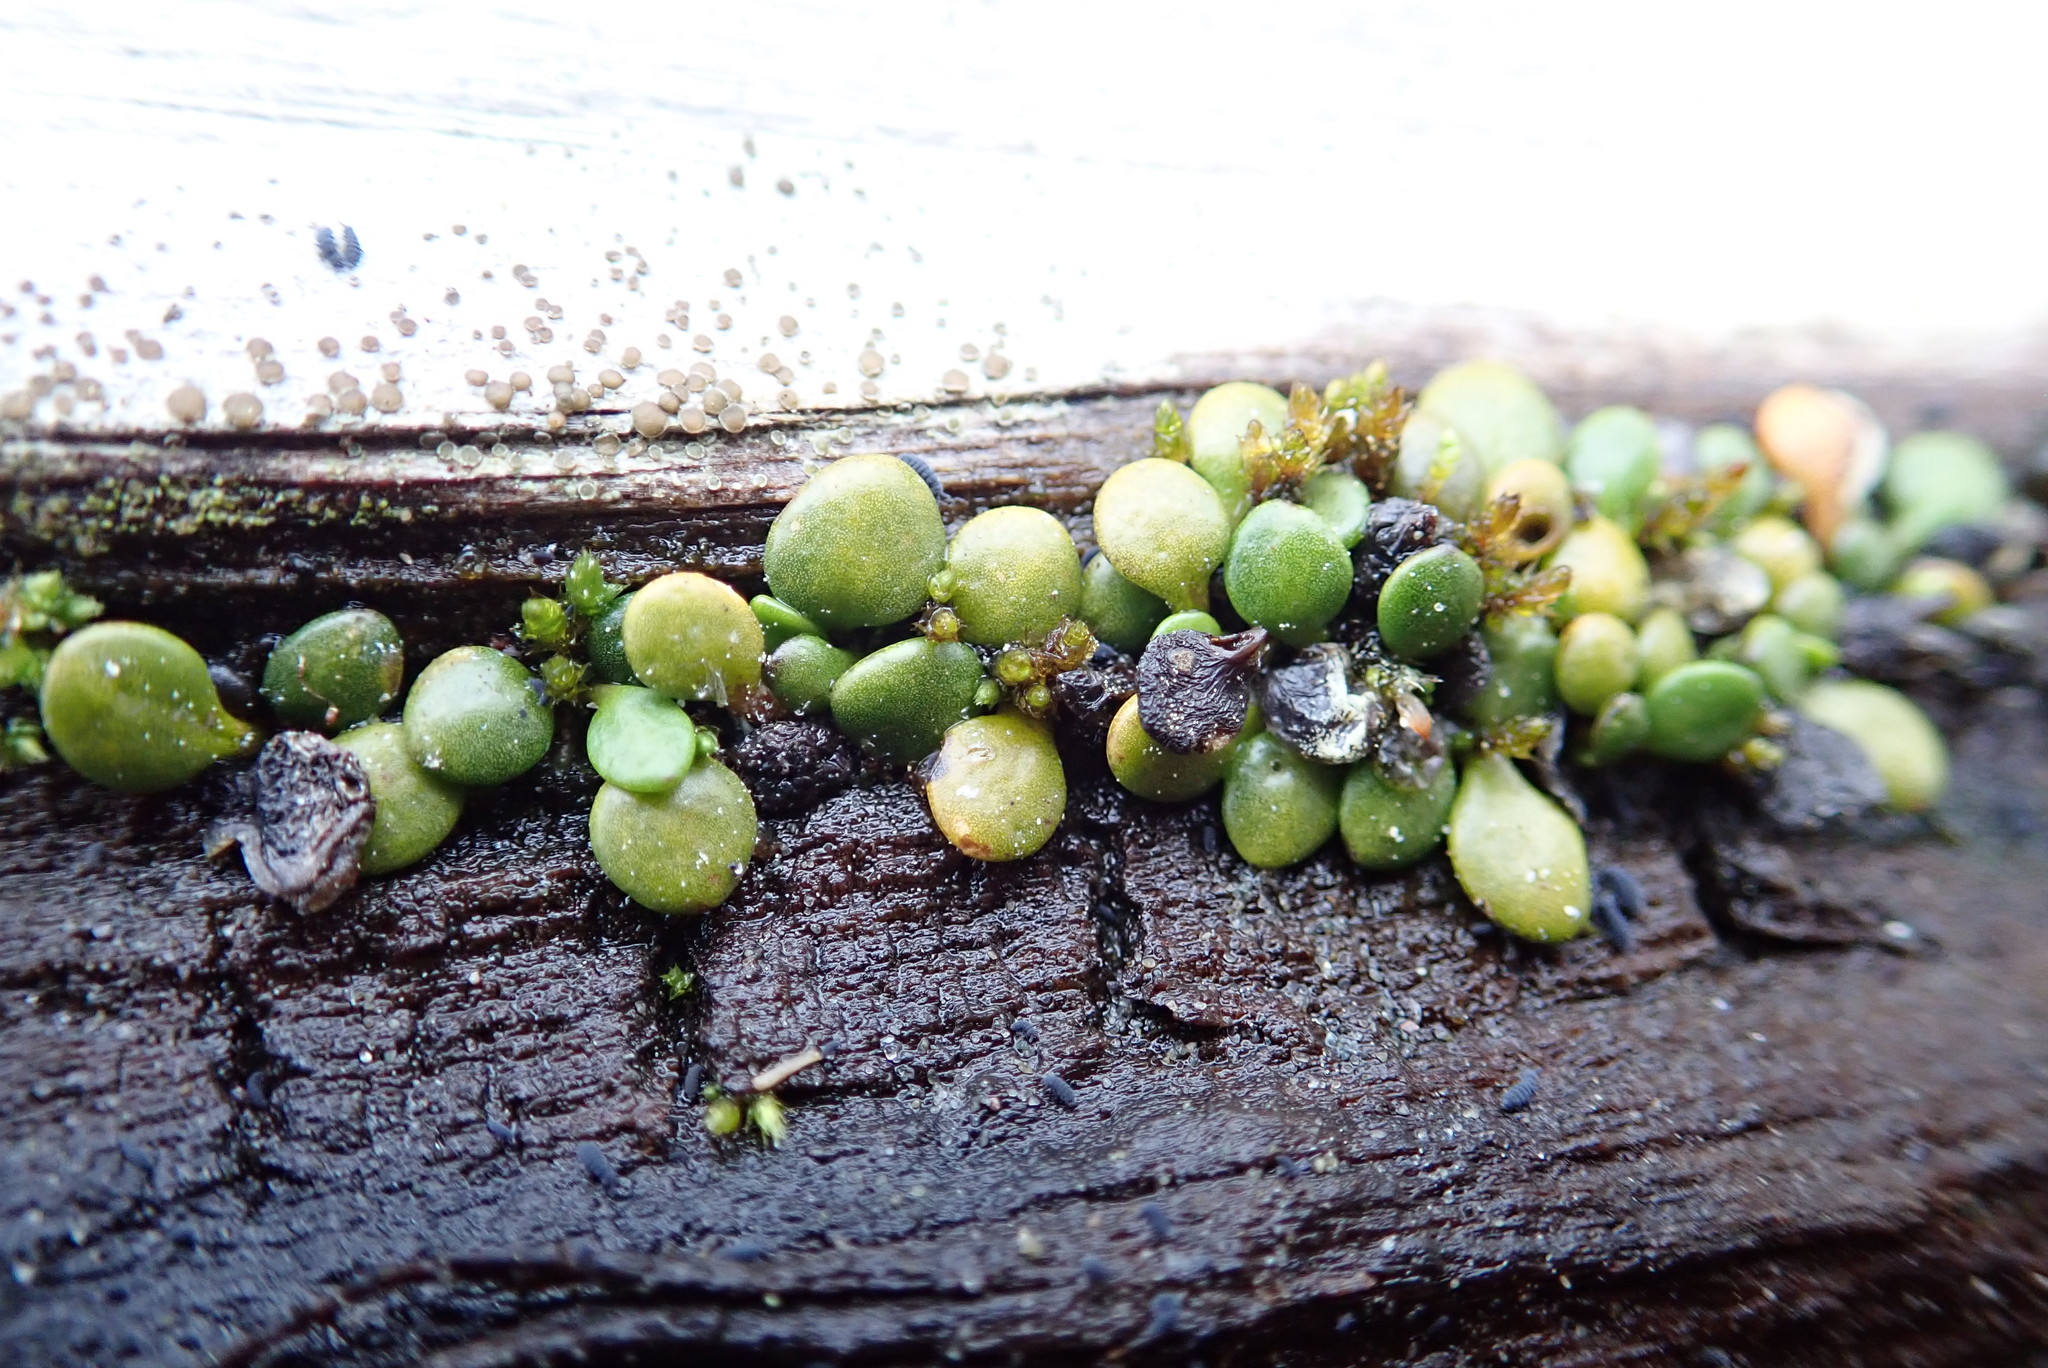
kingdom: Plantae
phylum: Tracheophyta
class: Magnoliopsida
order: Asterales
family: Goodeniaceae
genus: Goodenia
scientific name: Goodenia heenanii
